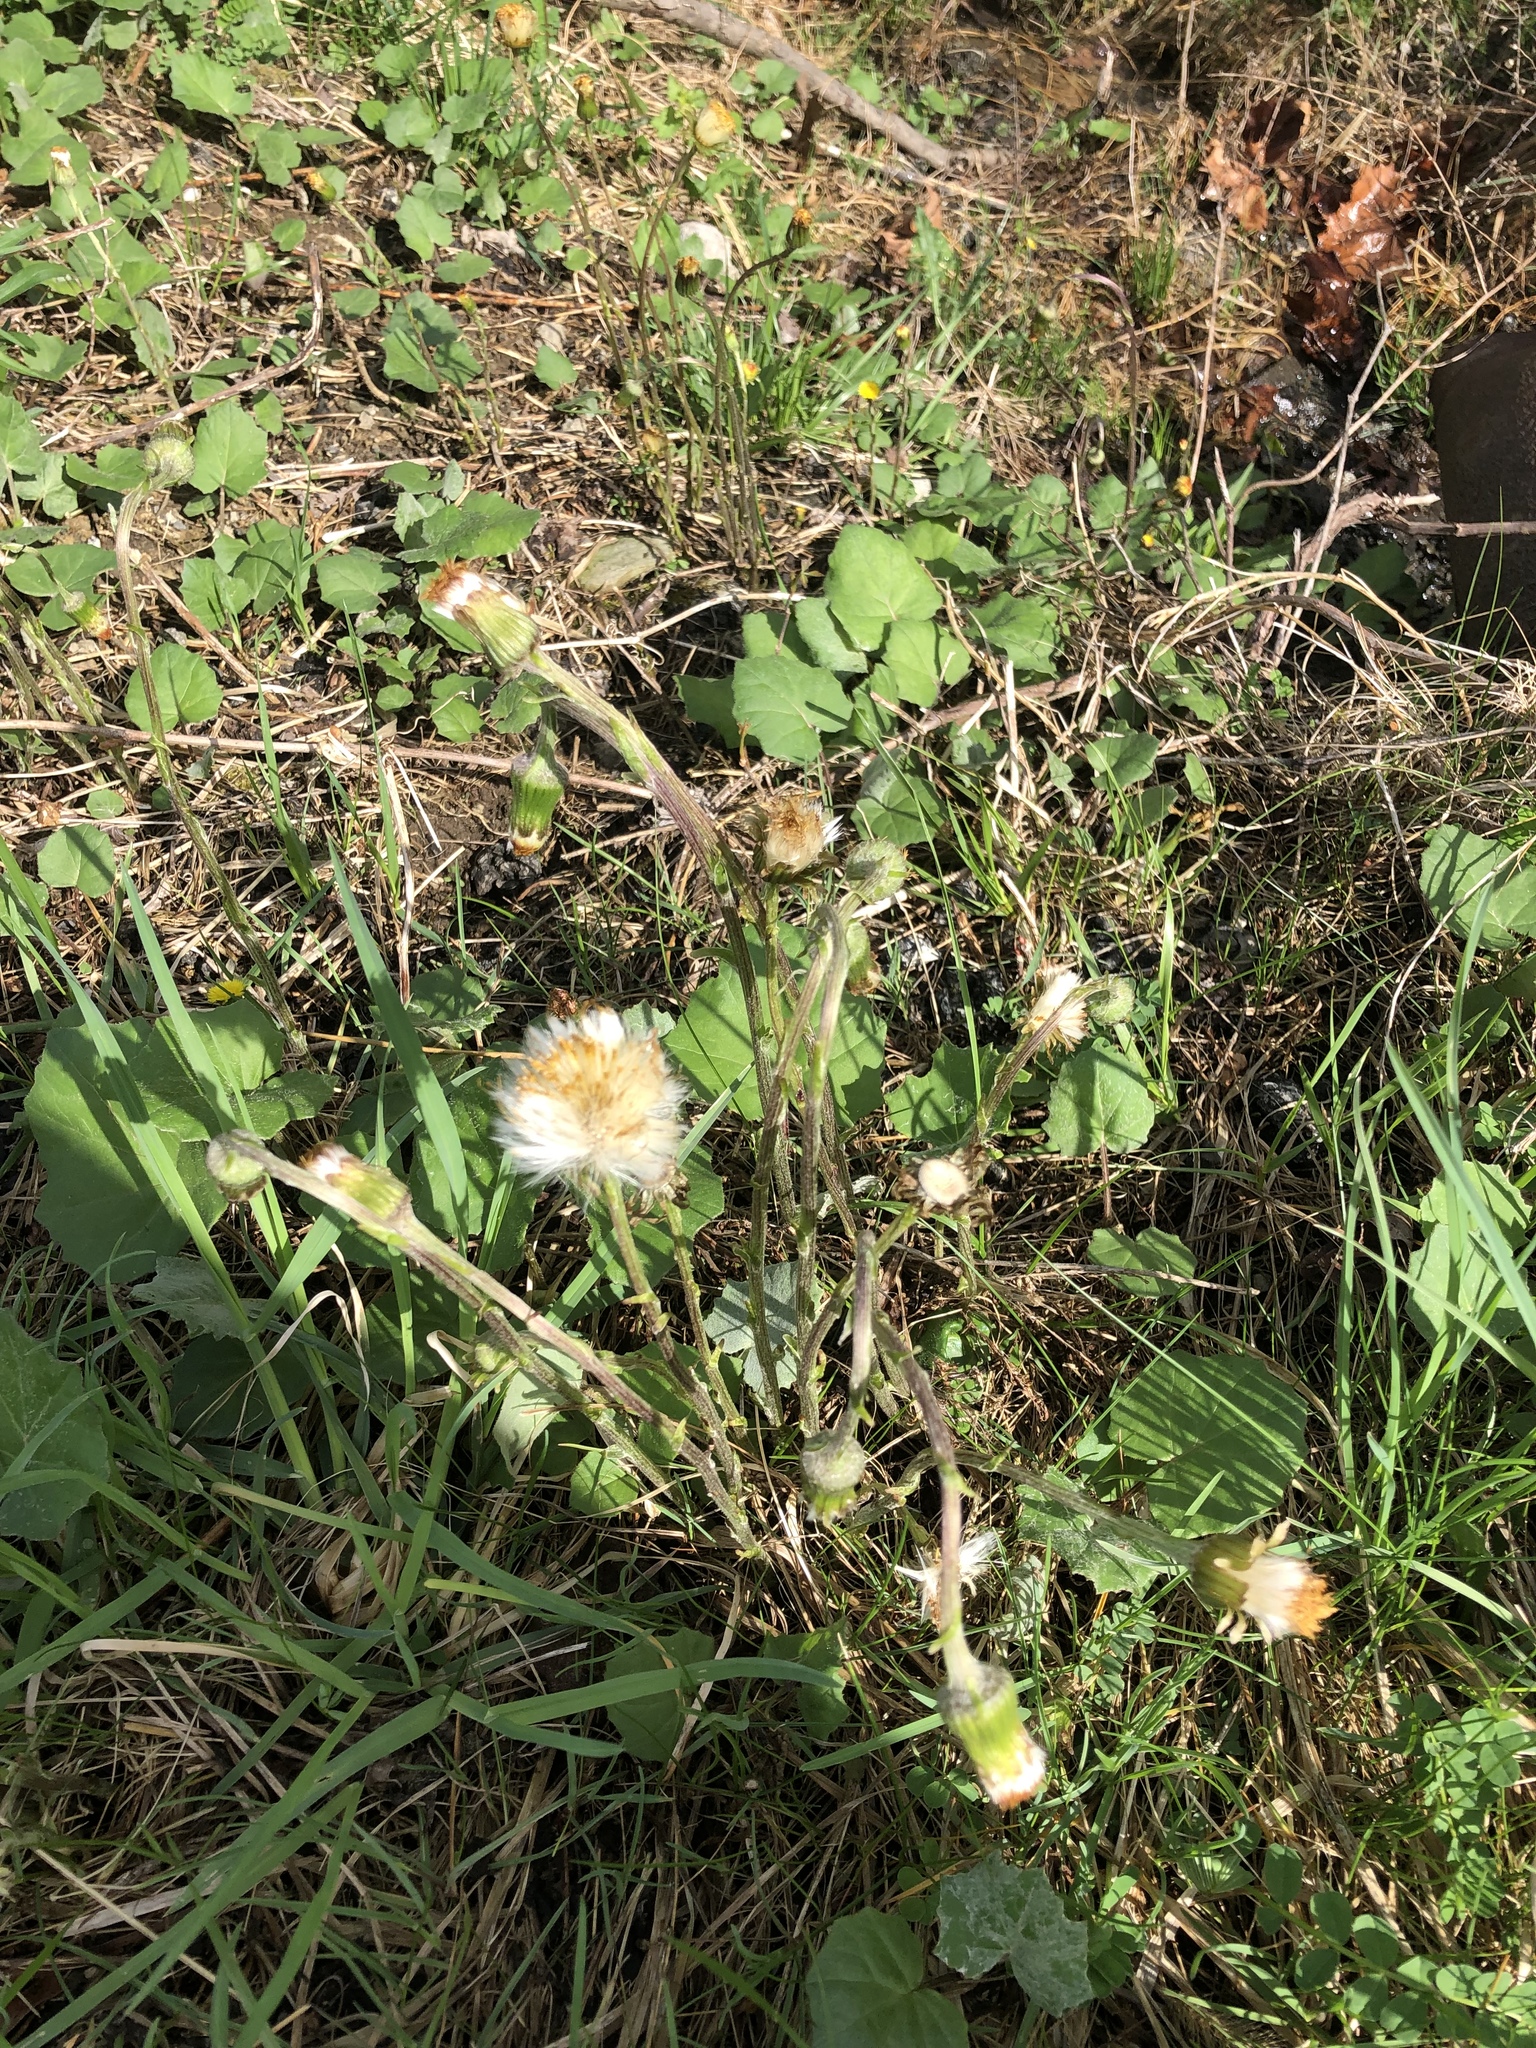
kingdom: Plantae
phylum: Tracheophyta
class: Magnoliopsida
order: Asterales
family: Asteraceae
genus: Tussilago
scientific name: Tussilago farfara
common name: Coltsfoot
